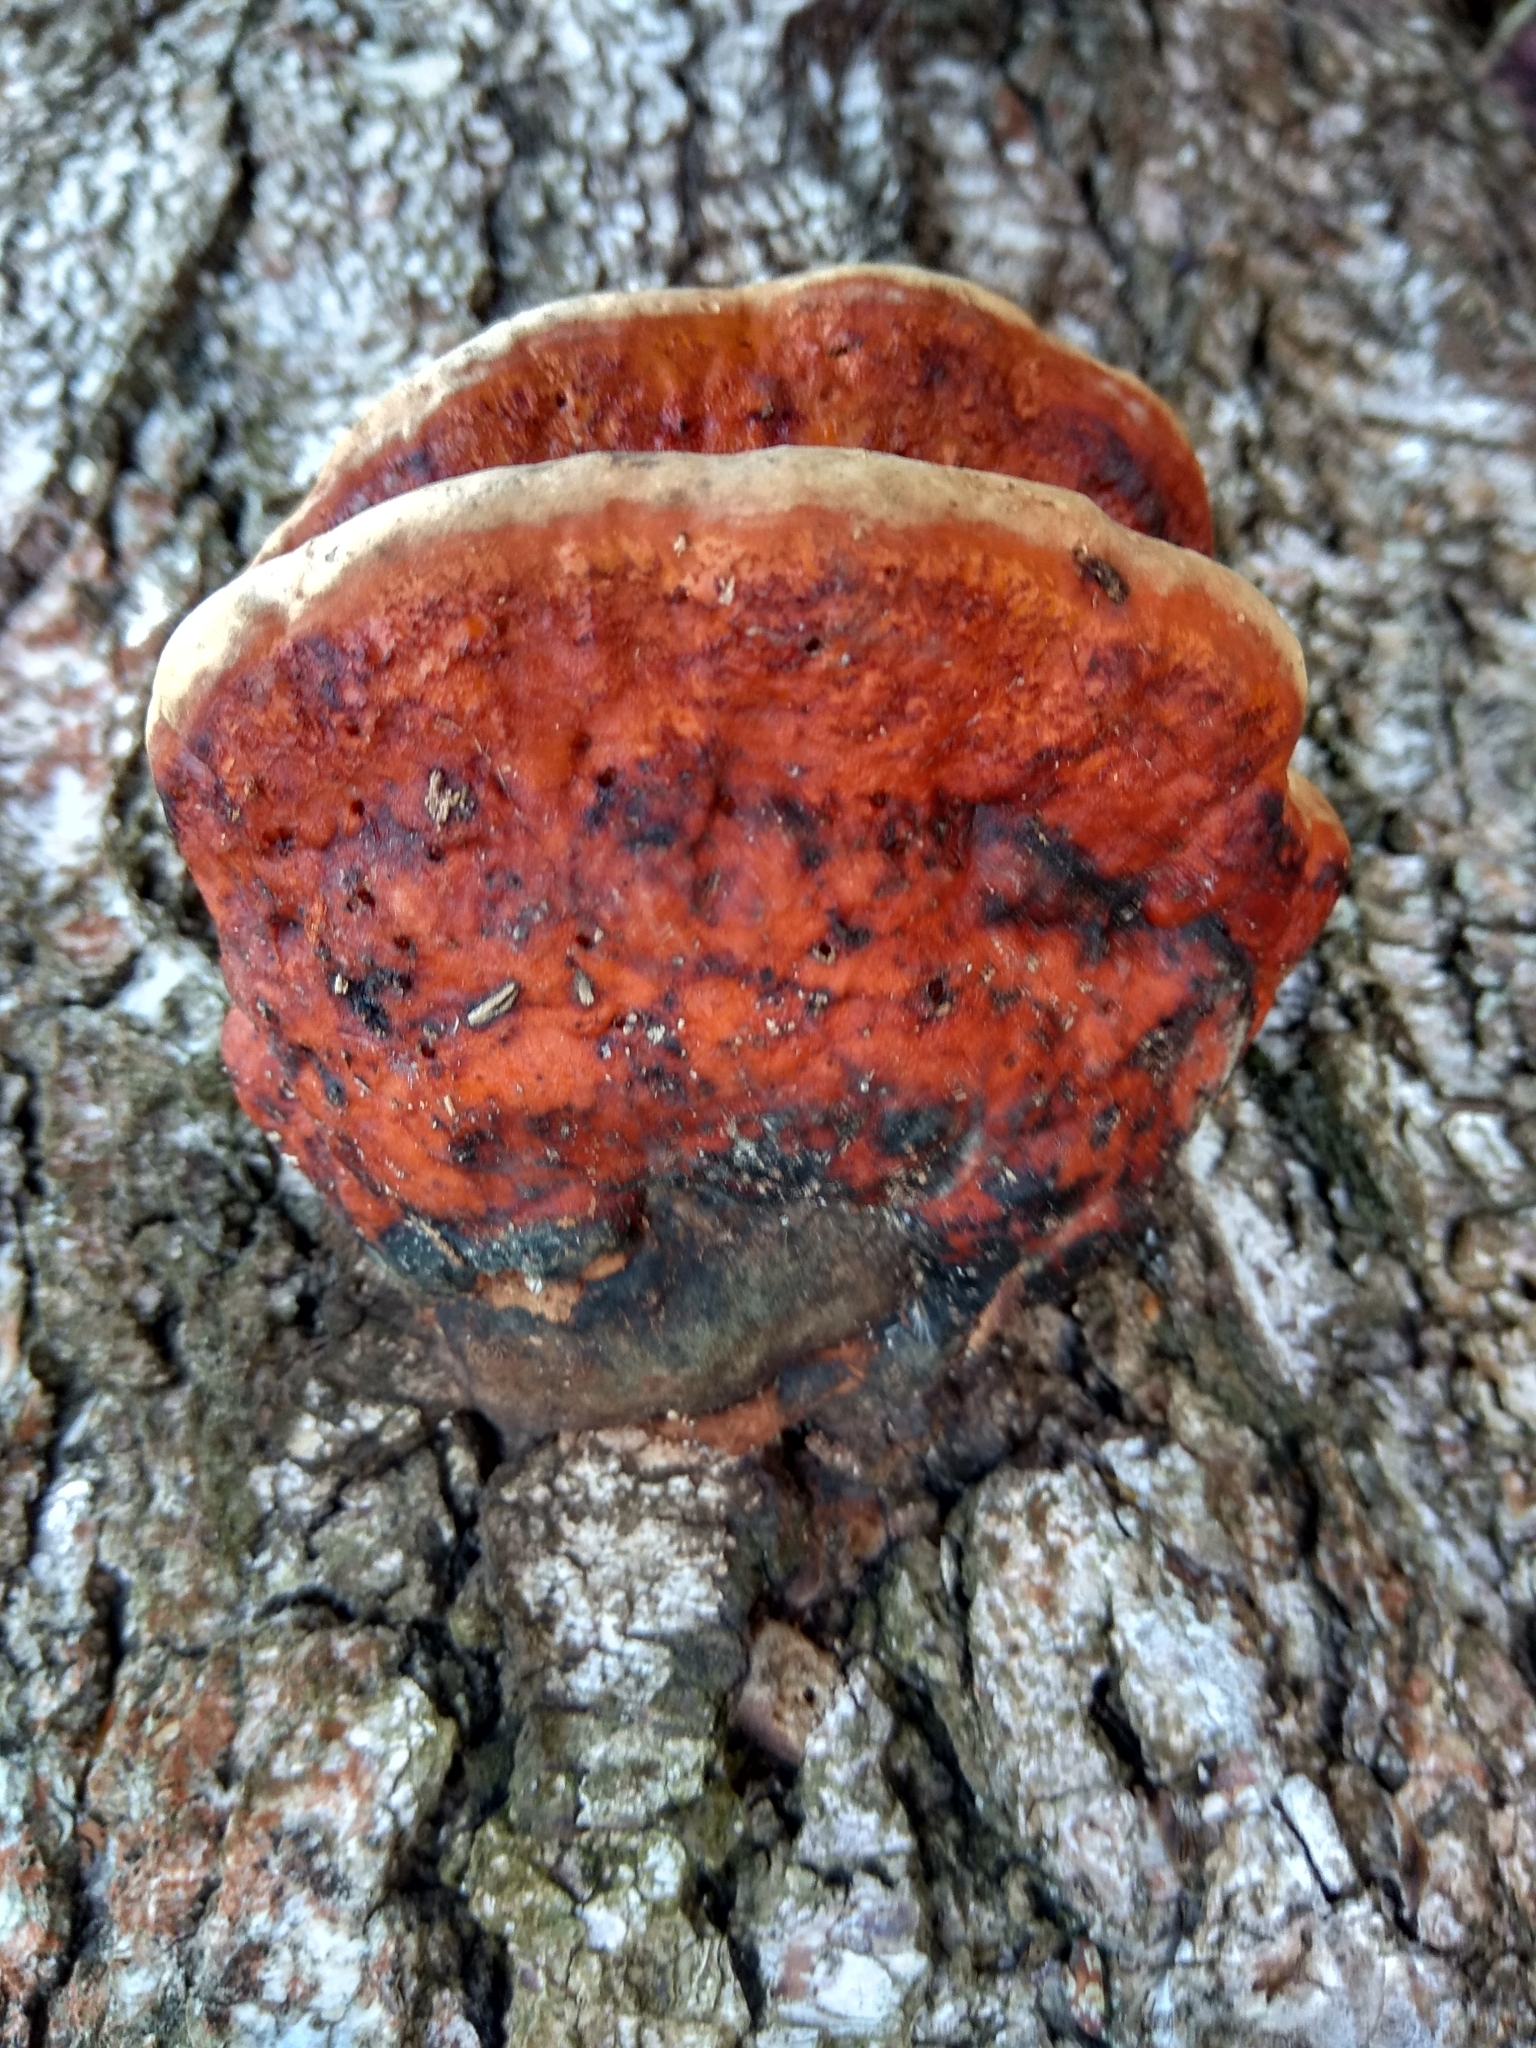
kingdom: Fungi
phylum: Basidiomycota
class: Agaricomycetes
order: Polyporales
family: Fomitopsidaceae
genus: Fomitopsis
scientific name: Fomitopsis pinicola
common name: Red-belted bracket
